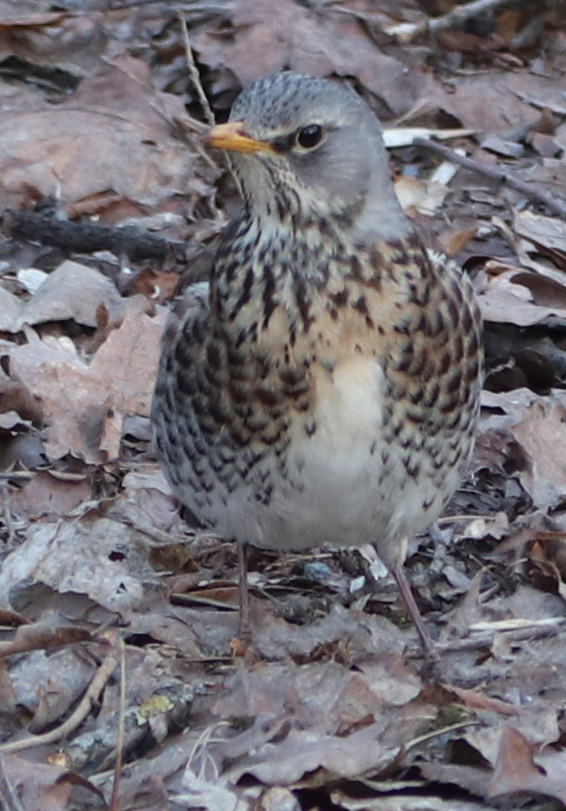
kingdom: Animalia
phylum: Chordata
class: Aves
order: Passeriformes
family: Turdidae
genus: Turdus
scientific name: Turdus pilaris
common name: Fieldfare
